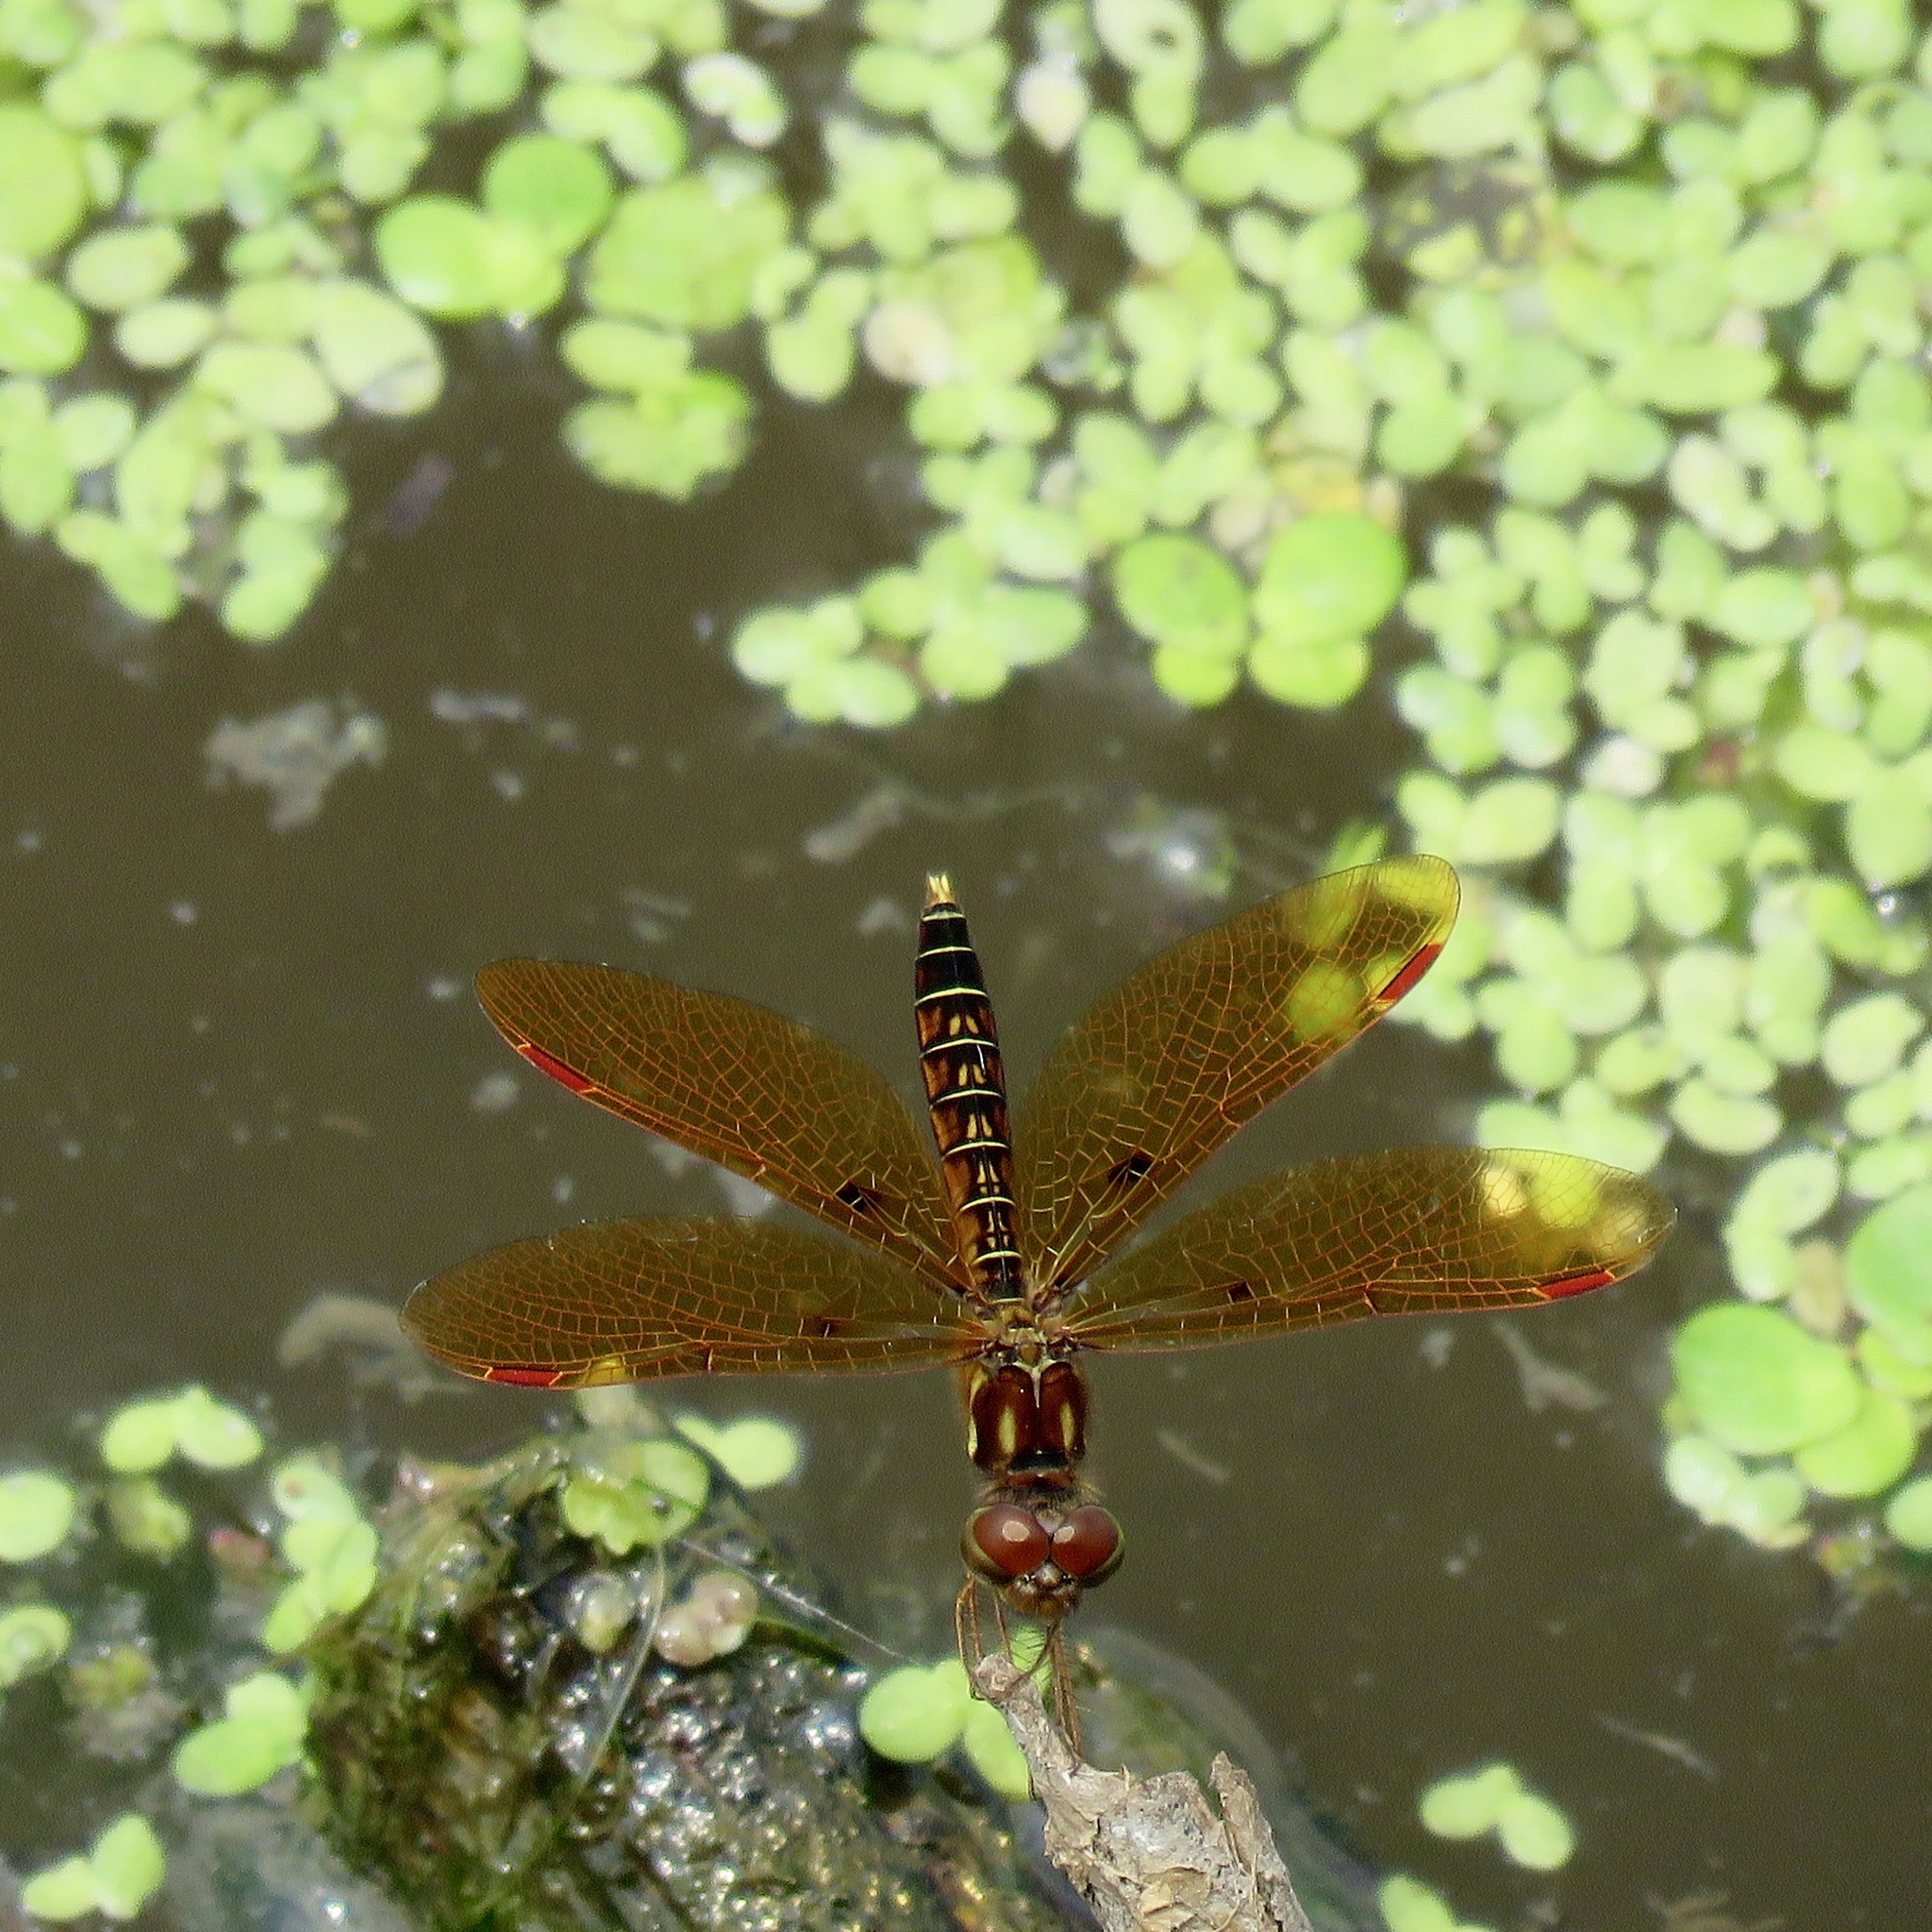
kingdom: Animalia
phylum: Arthropoda
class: Insecta
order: Odonata
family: Libellulidae
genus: Perithemis
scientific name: Perithemis tenera
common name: Eastern amberwing
